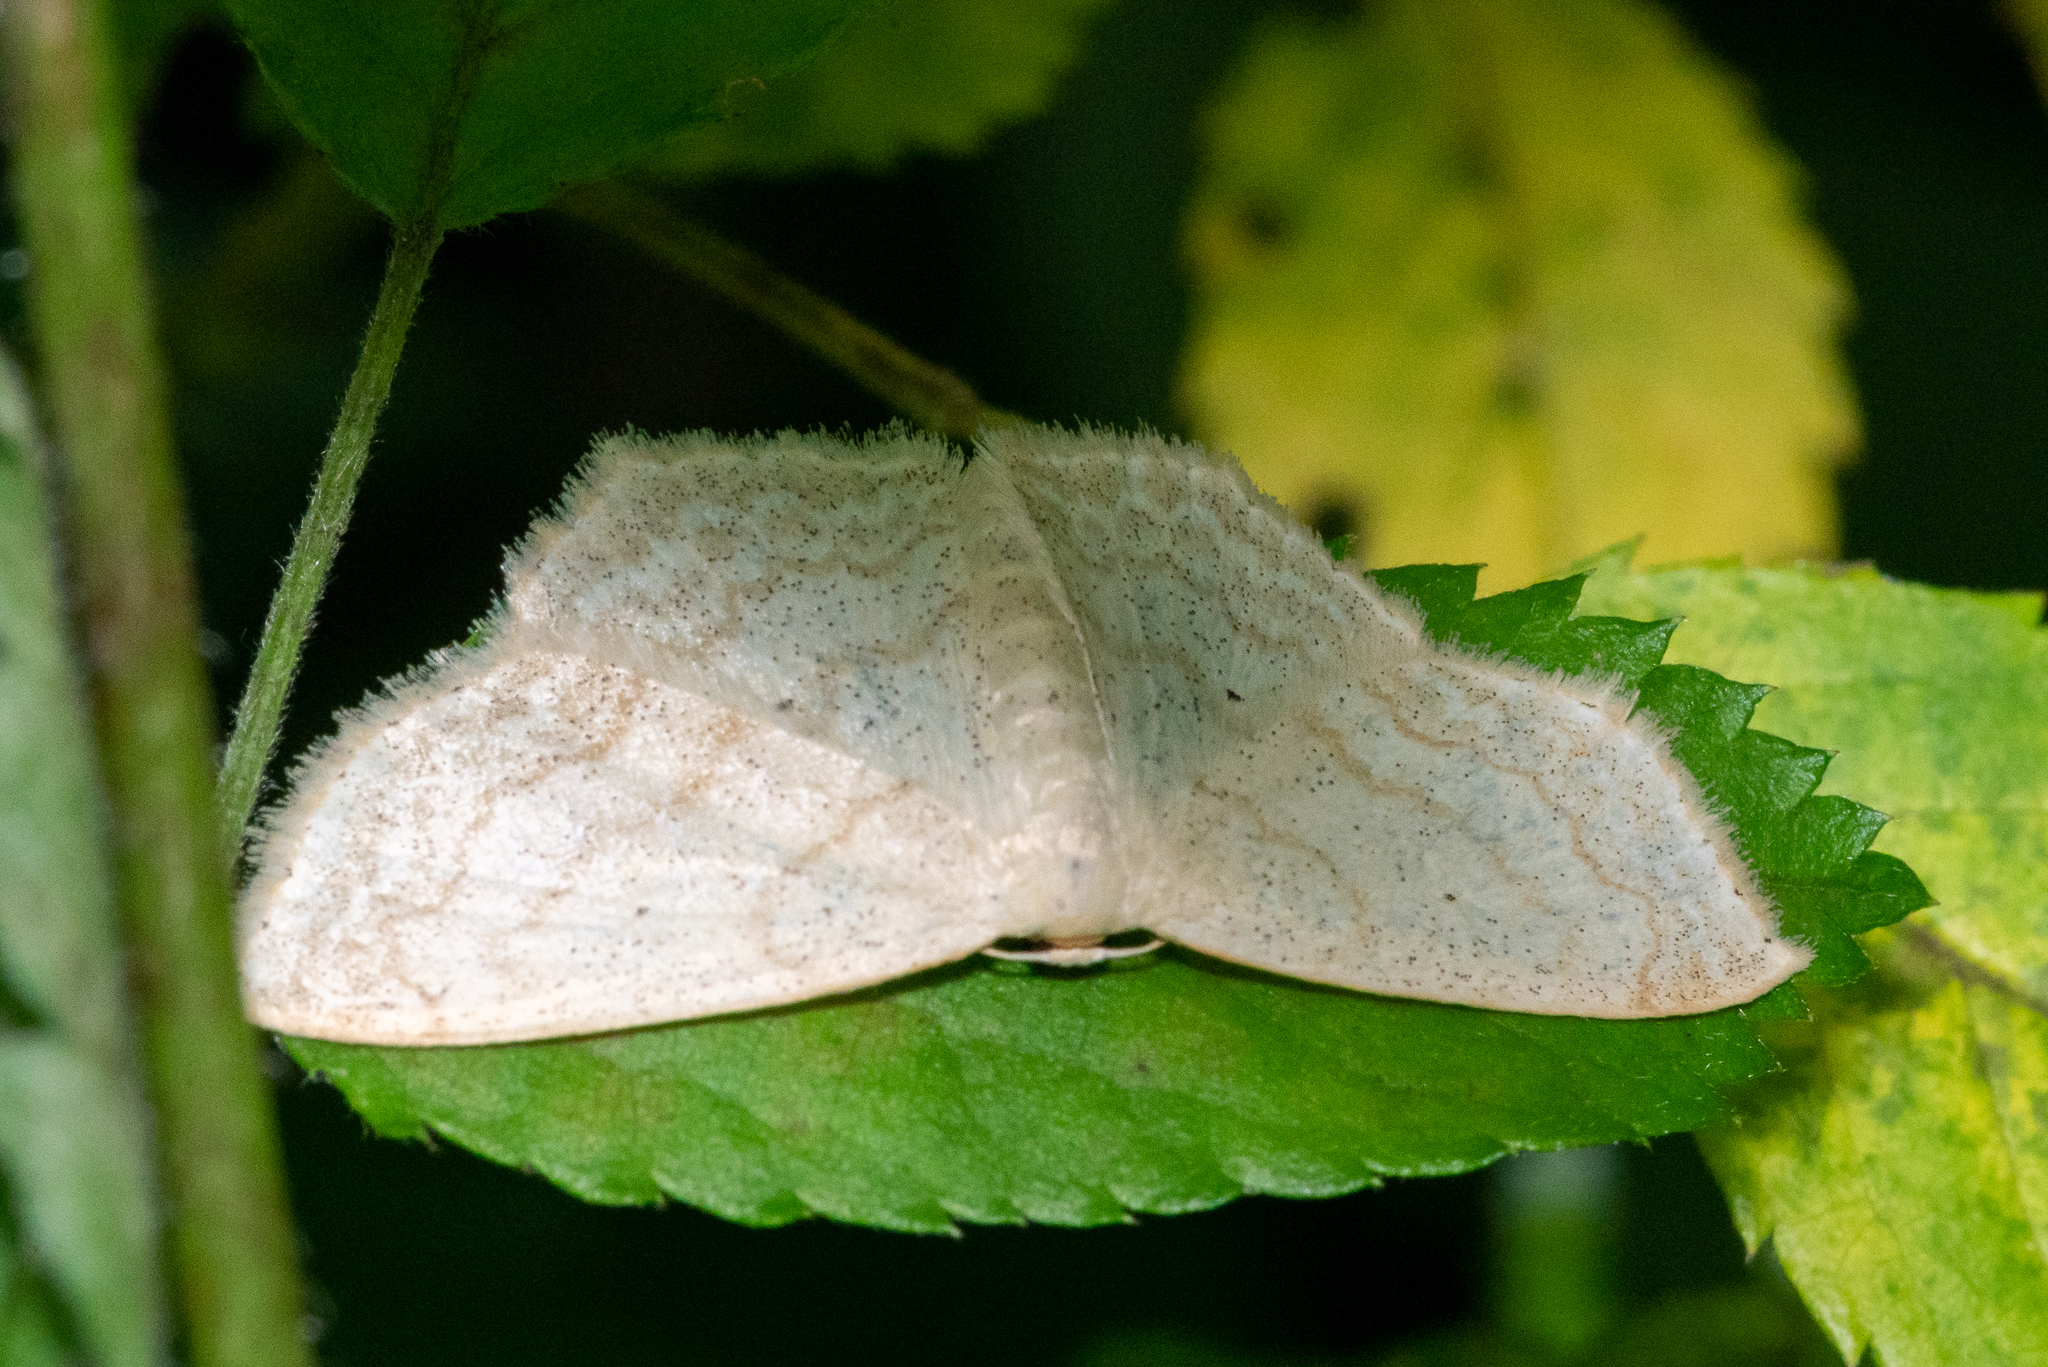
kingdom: Animalia
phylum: Arthropoda
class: Insecta
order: Lepidoptera
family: Geometridae
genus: Scopula
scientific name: Scopula limboundata
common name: Large lace border
